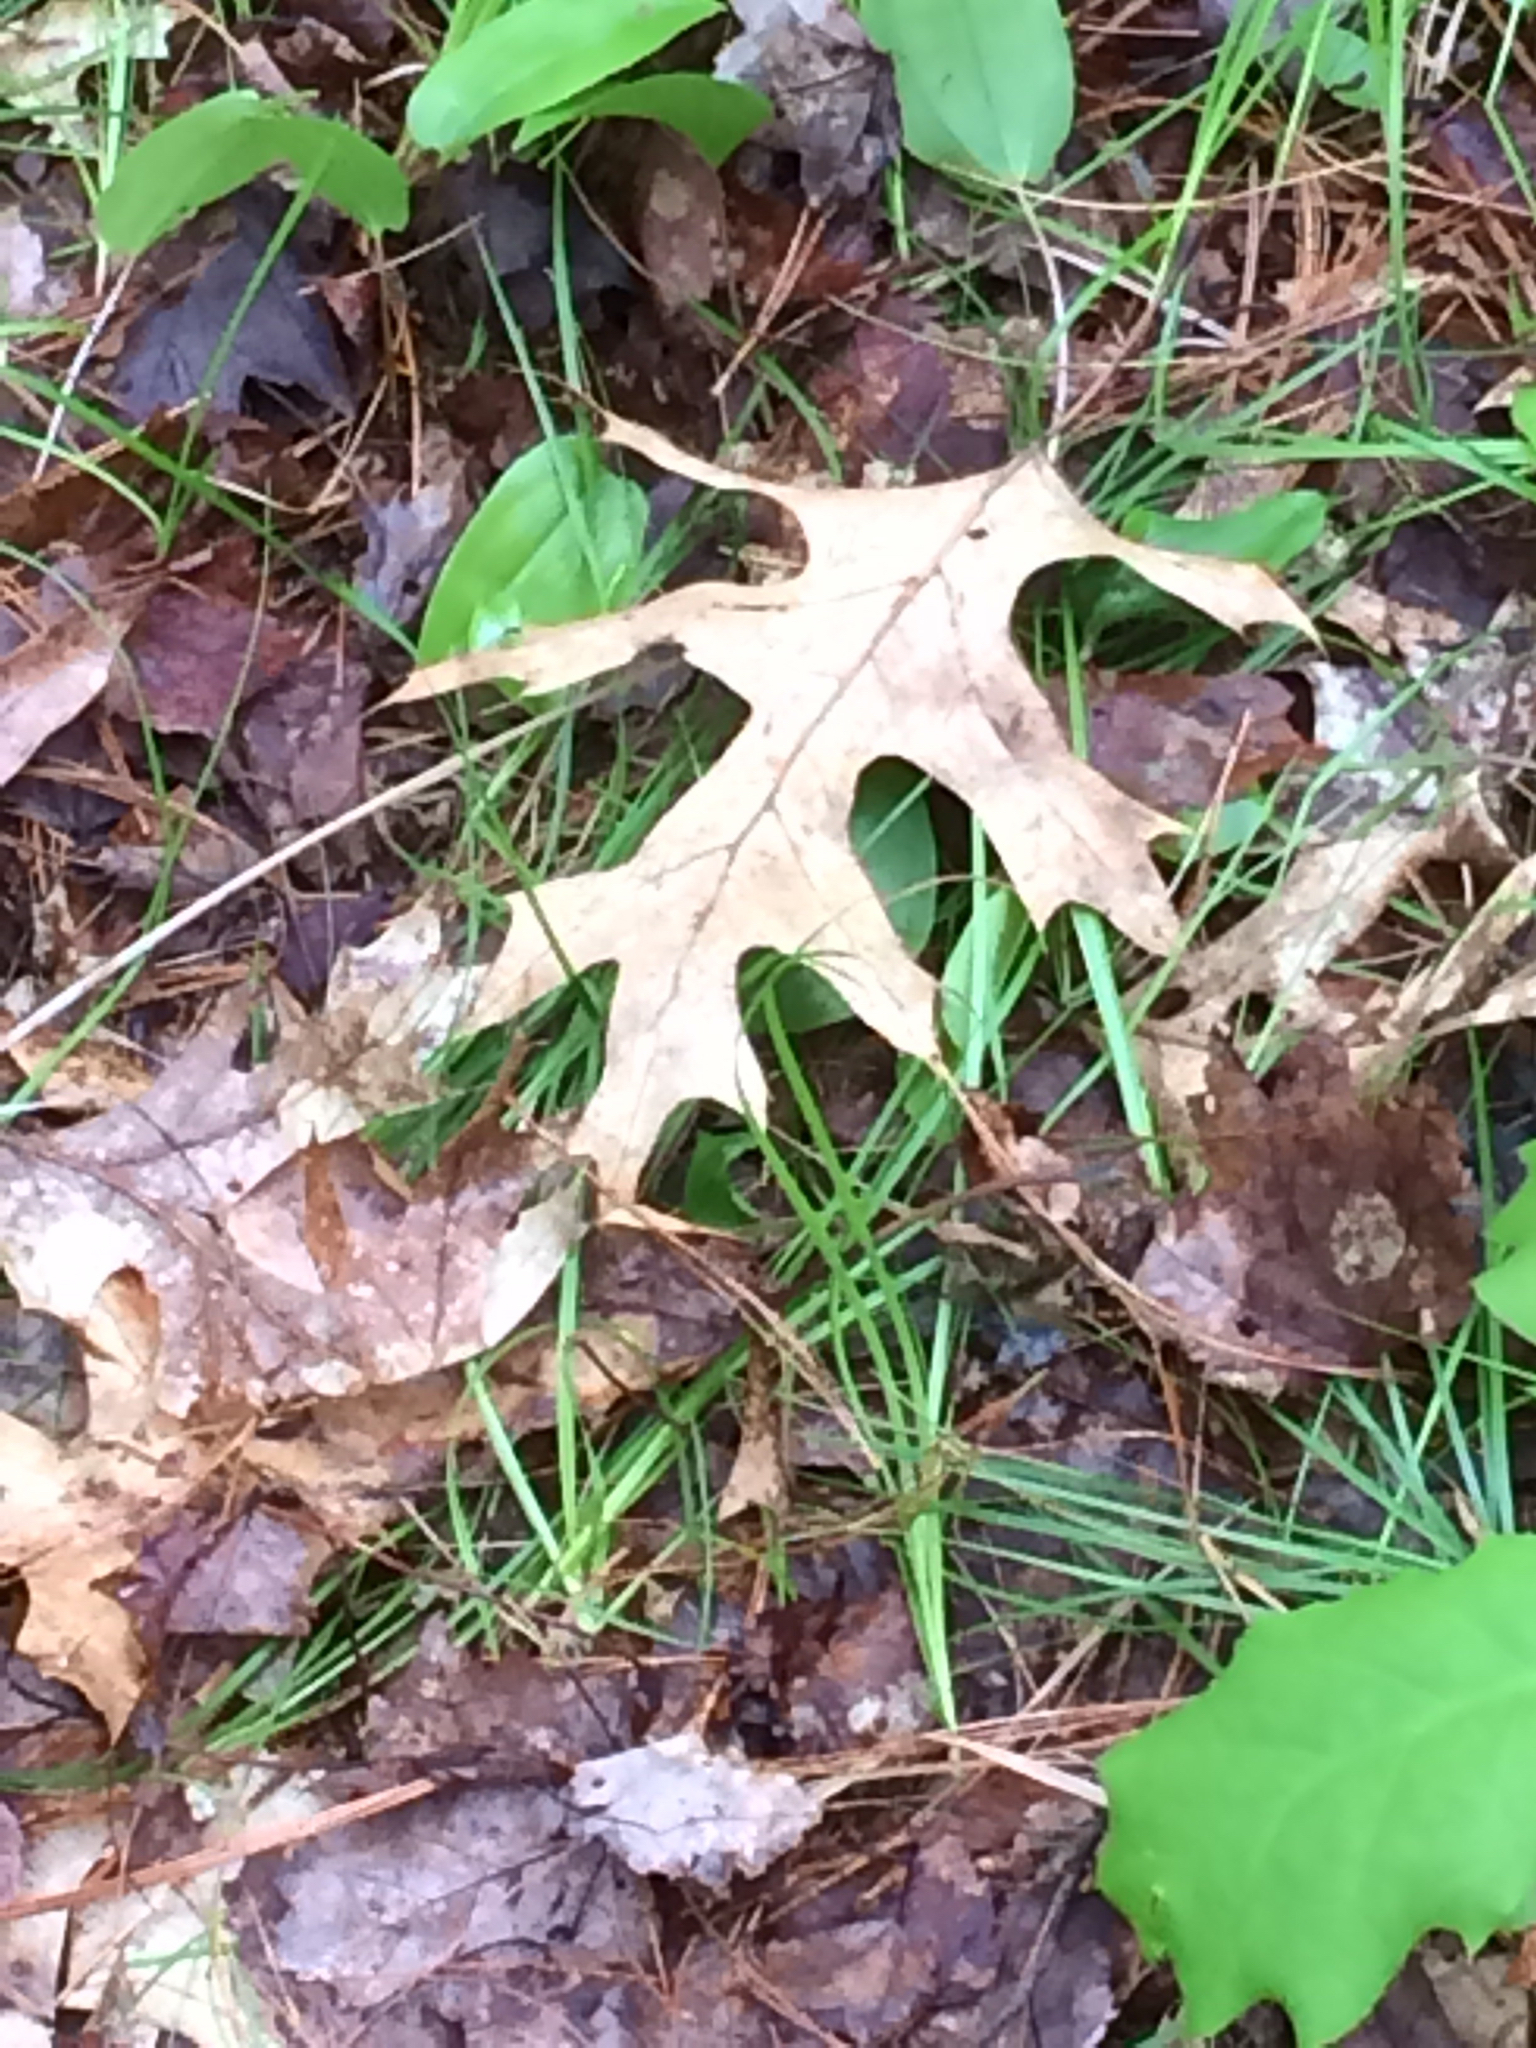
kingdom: Plantae
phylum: Tracheophyta
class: Magnoliopsida
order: Fagales
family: Fagaceae
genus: Quercus
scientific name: Quercus coccinea
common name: Scarlet oak
